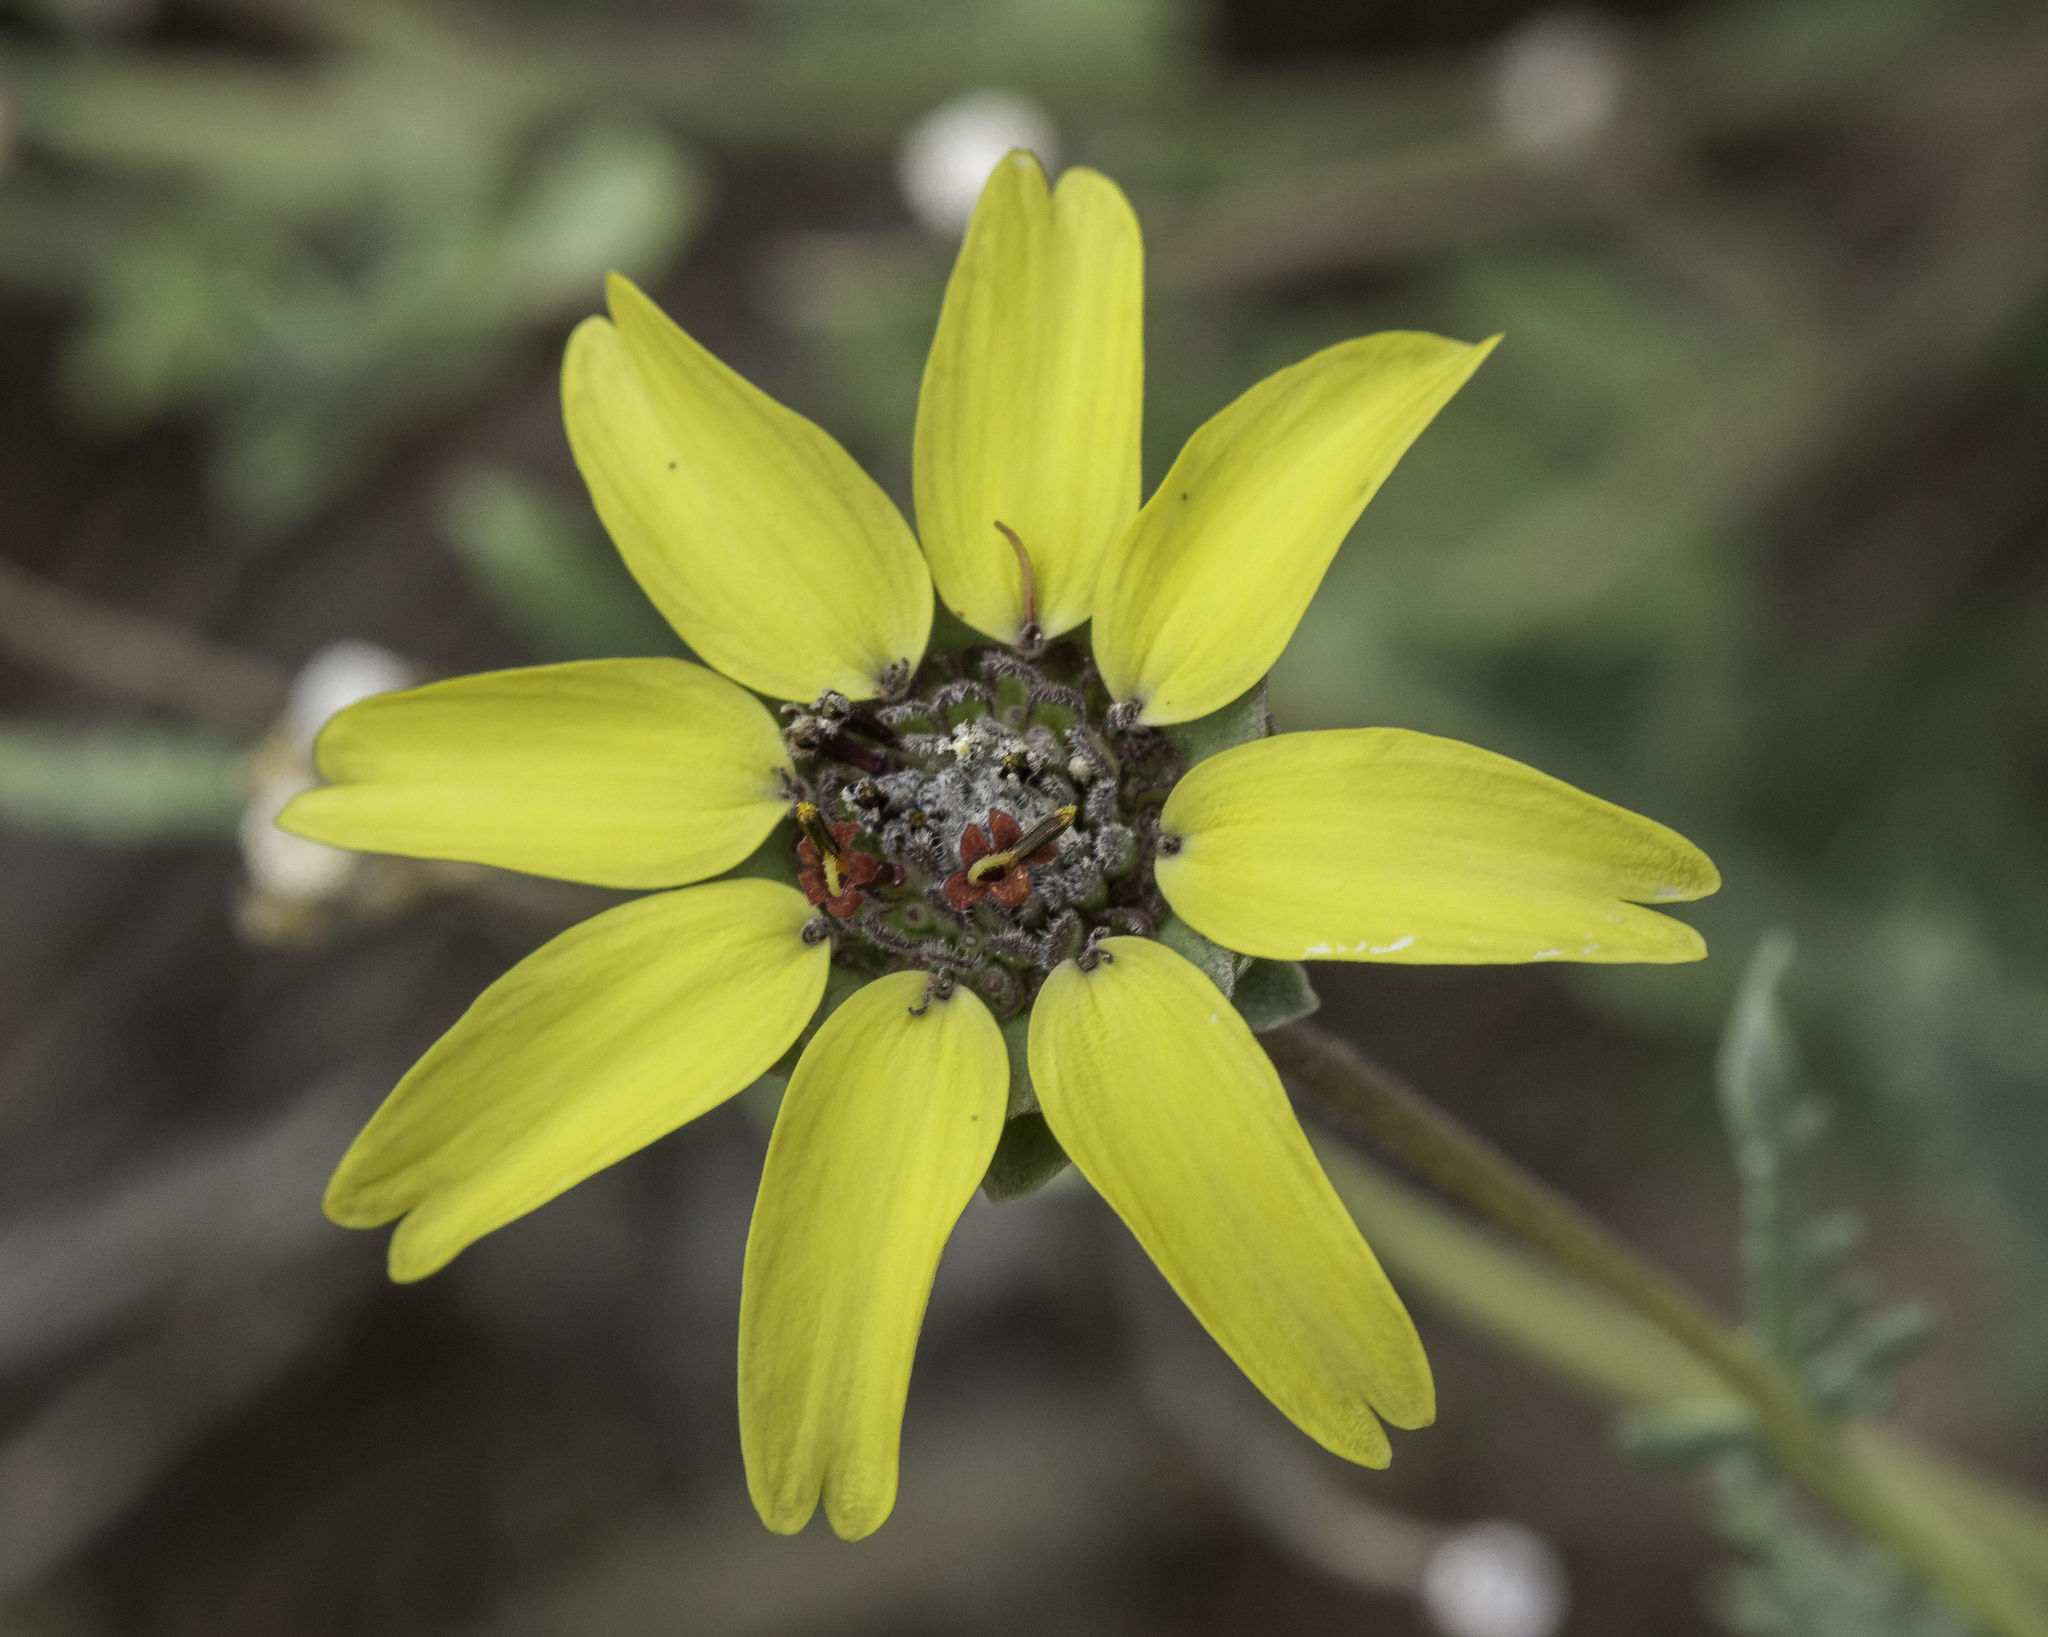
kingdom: Plantae
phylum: Tracheophyta
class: Magnoliopsida
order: Asterales
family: Asteraceae
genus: Berlandiera
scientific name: Berlandiera lyrata
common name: Chocolate-flower
